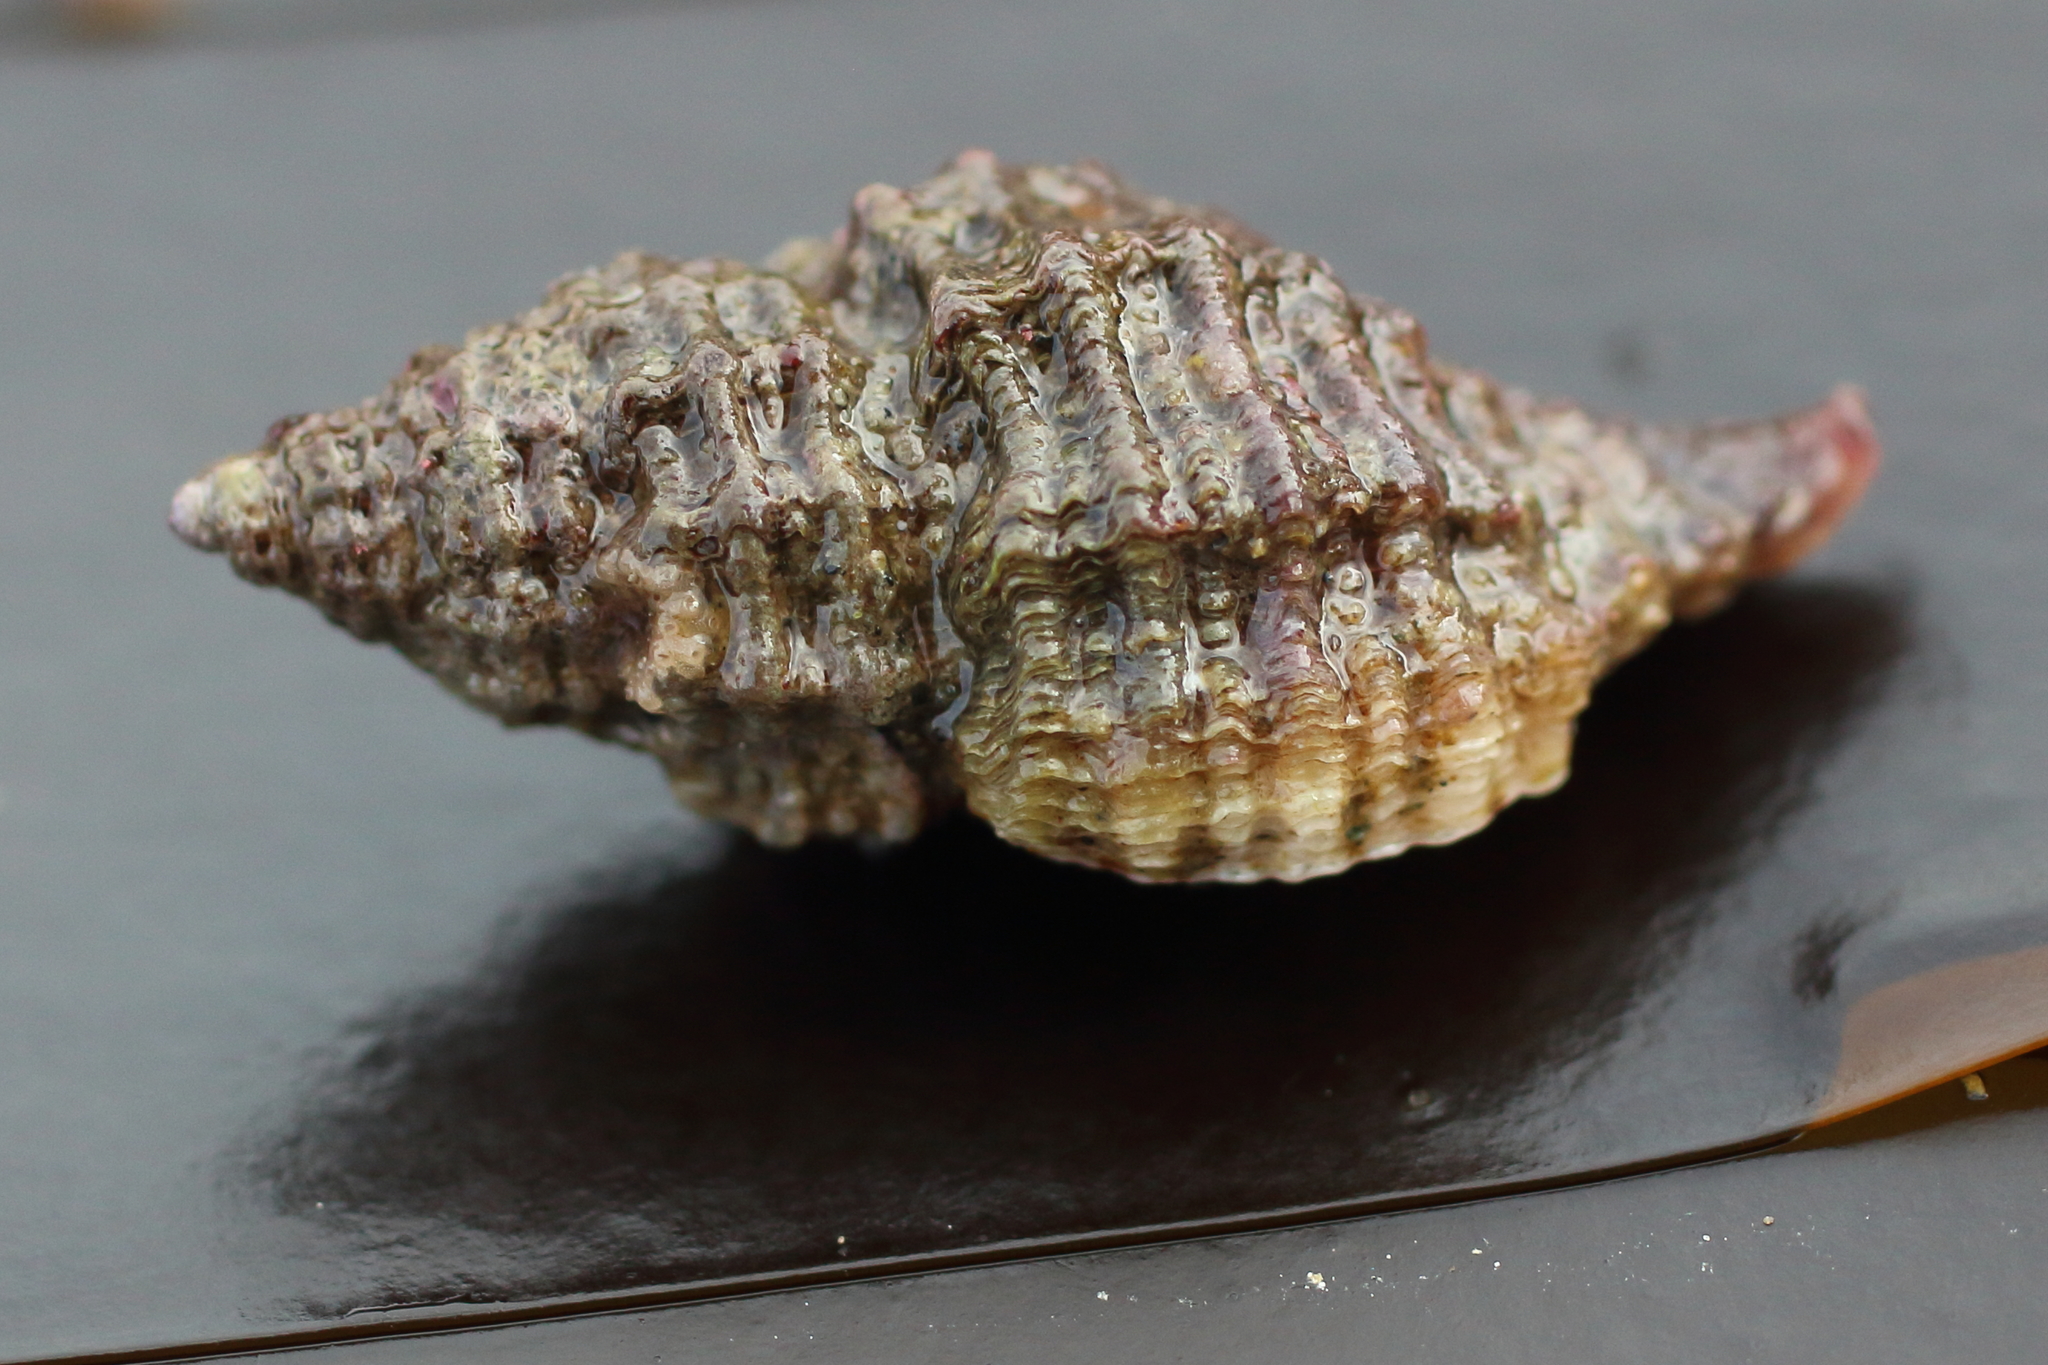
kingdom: Animalia
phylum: Mollusca
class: Gastropoda
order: Neogastropoda
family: Muricidae
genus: Paciocinebrina
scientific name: Paciocinebrina interfossa
